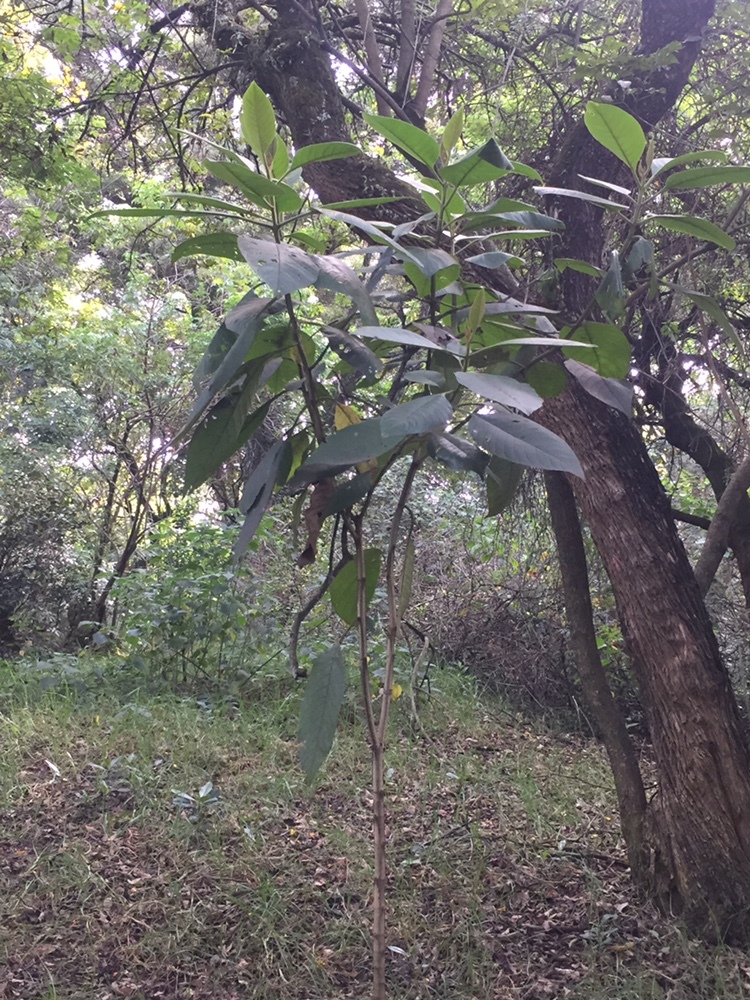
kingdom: Plantae
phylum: Tracheophyta
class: Magnoliopsida
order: Lamiales
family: Verbenaceae
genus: Citharexylum
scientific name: Citharexylum subflavescens
